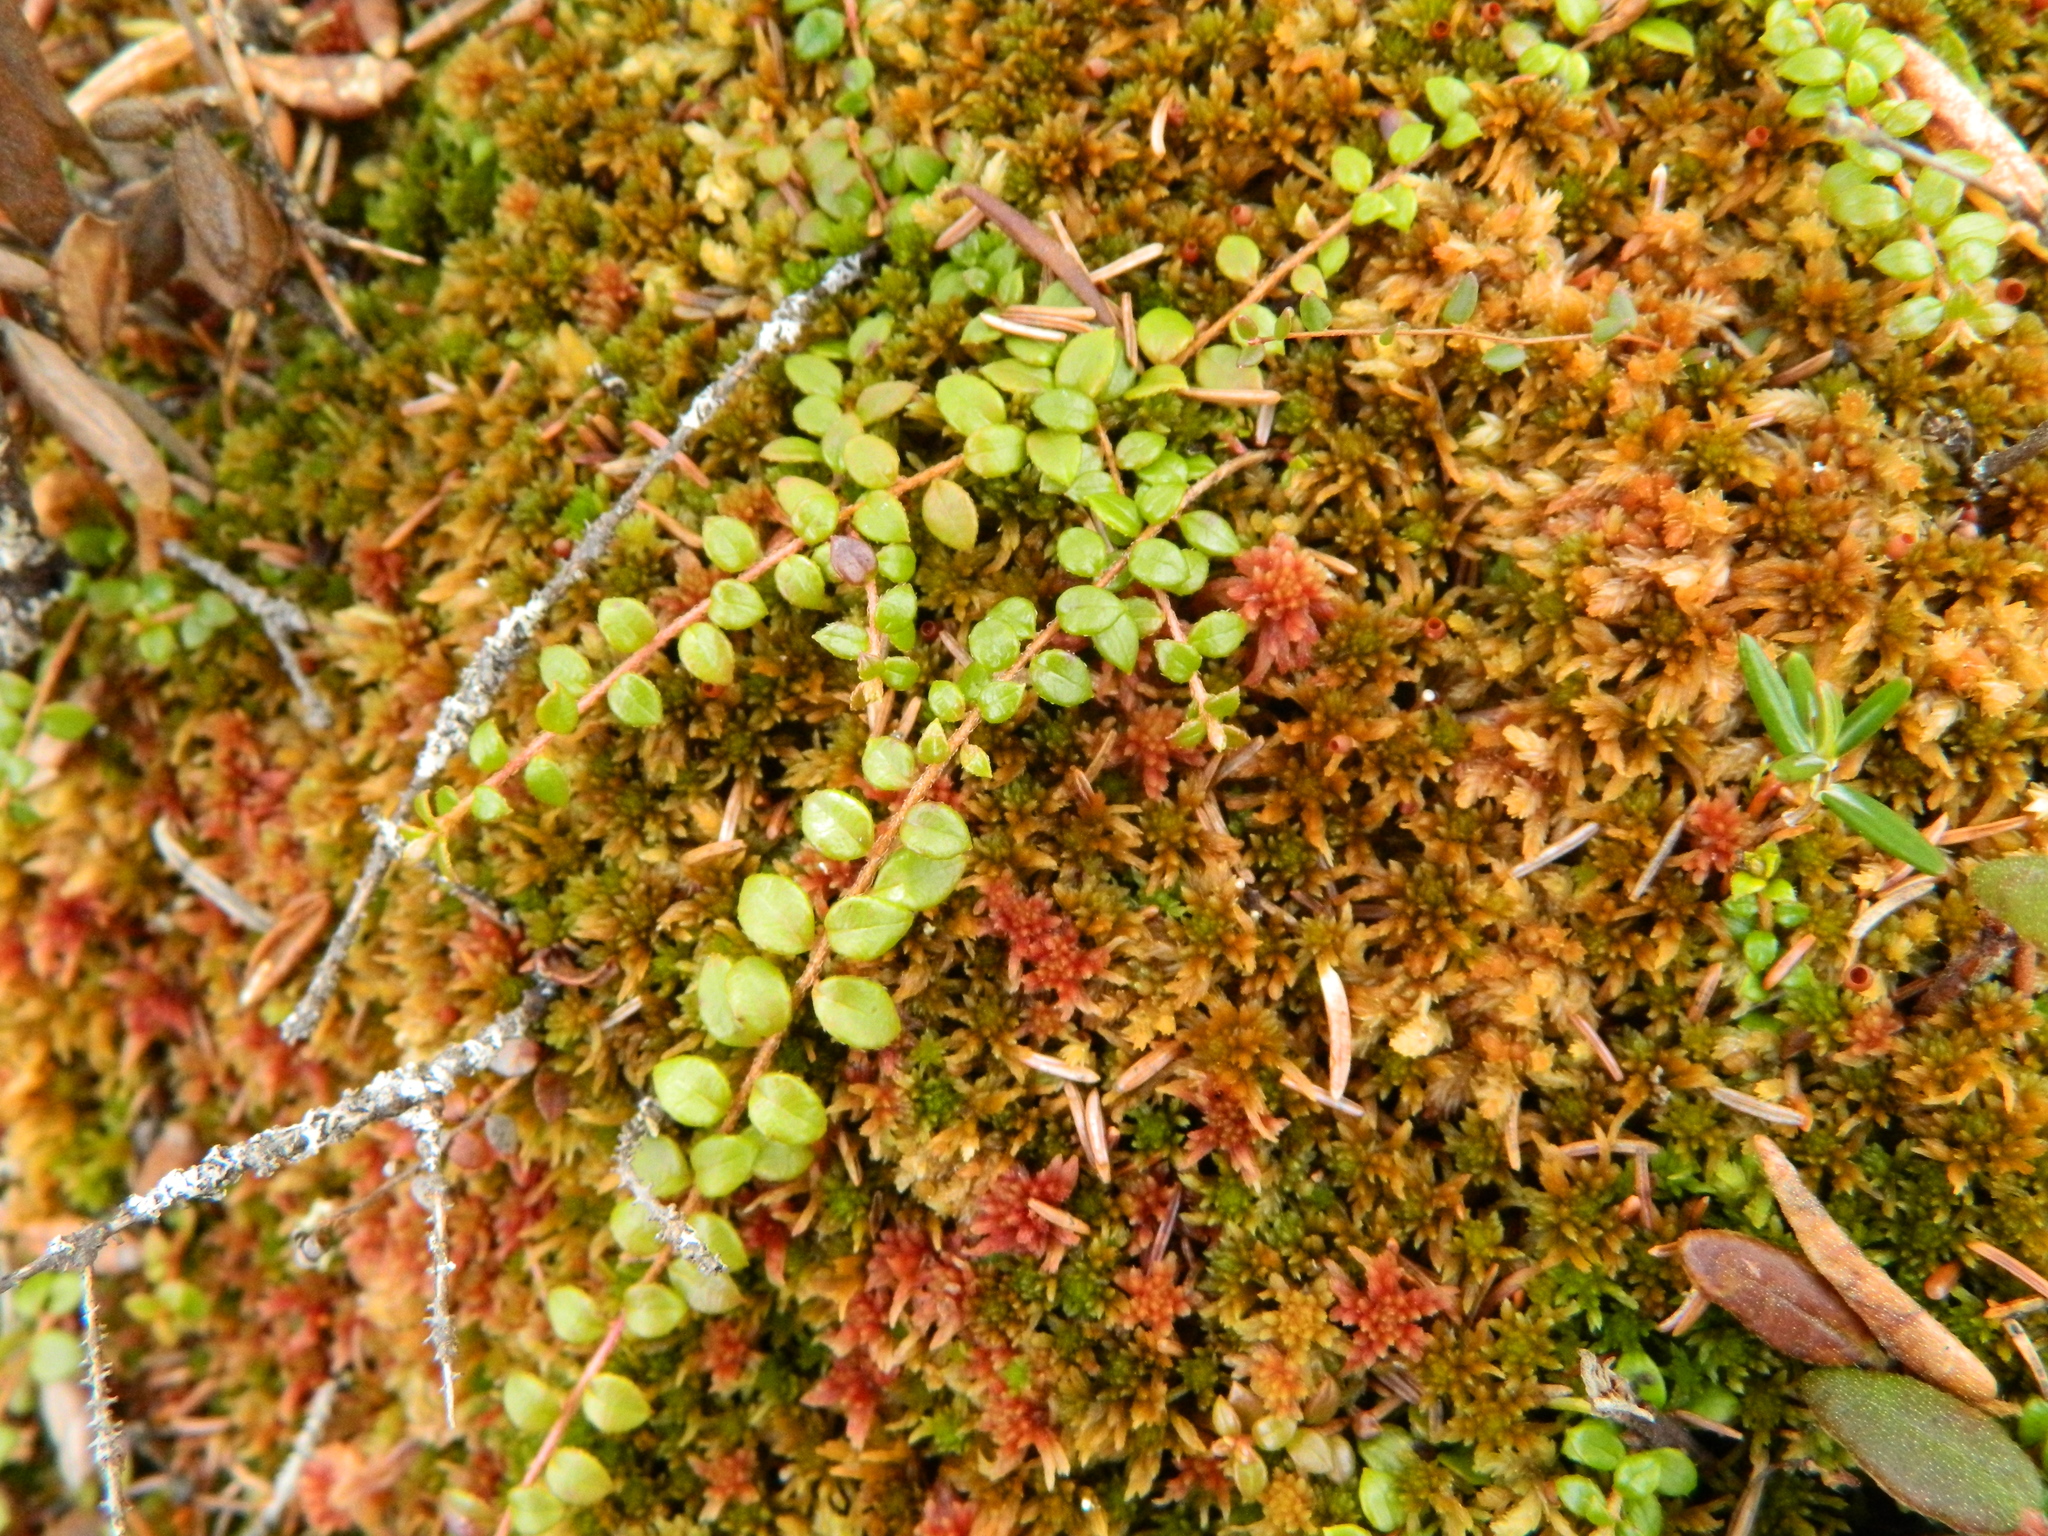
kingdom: Plantae
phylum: Tracheophyta
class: Magnoliopsida
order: Ericales
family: Ericaceae
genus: Gaultheria
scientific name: Gaultheria hispidula
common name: Cancer wintergreen
